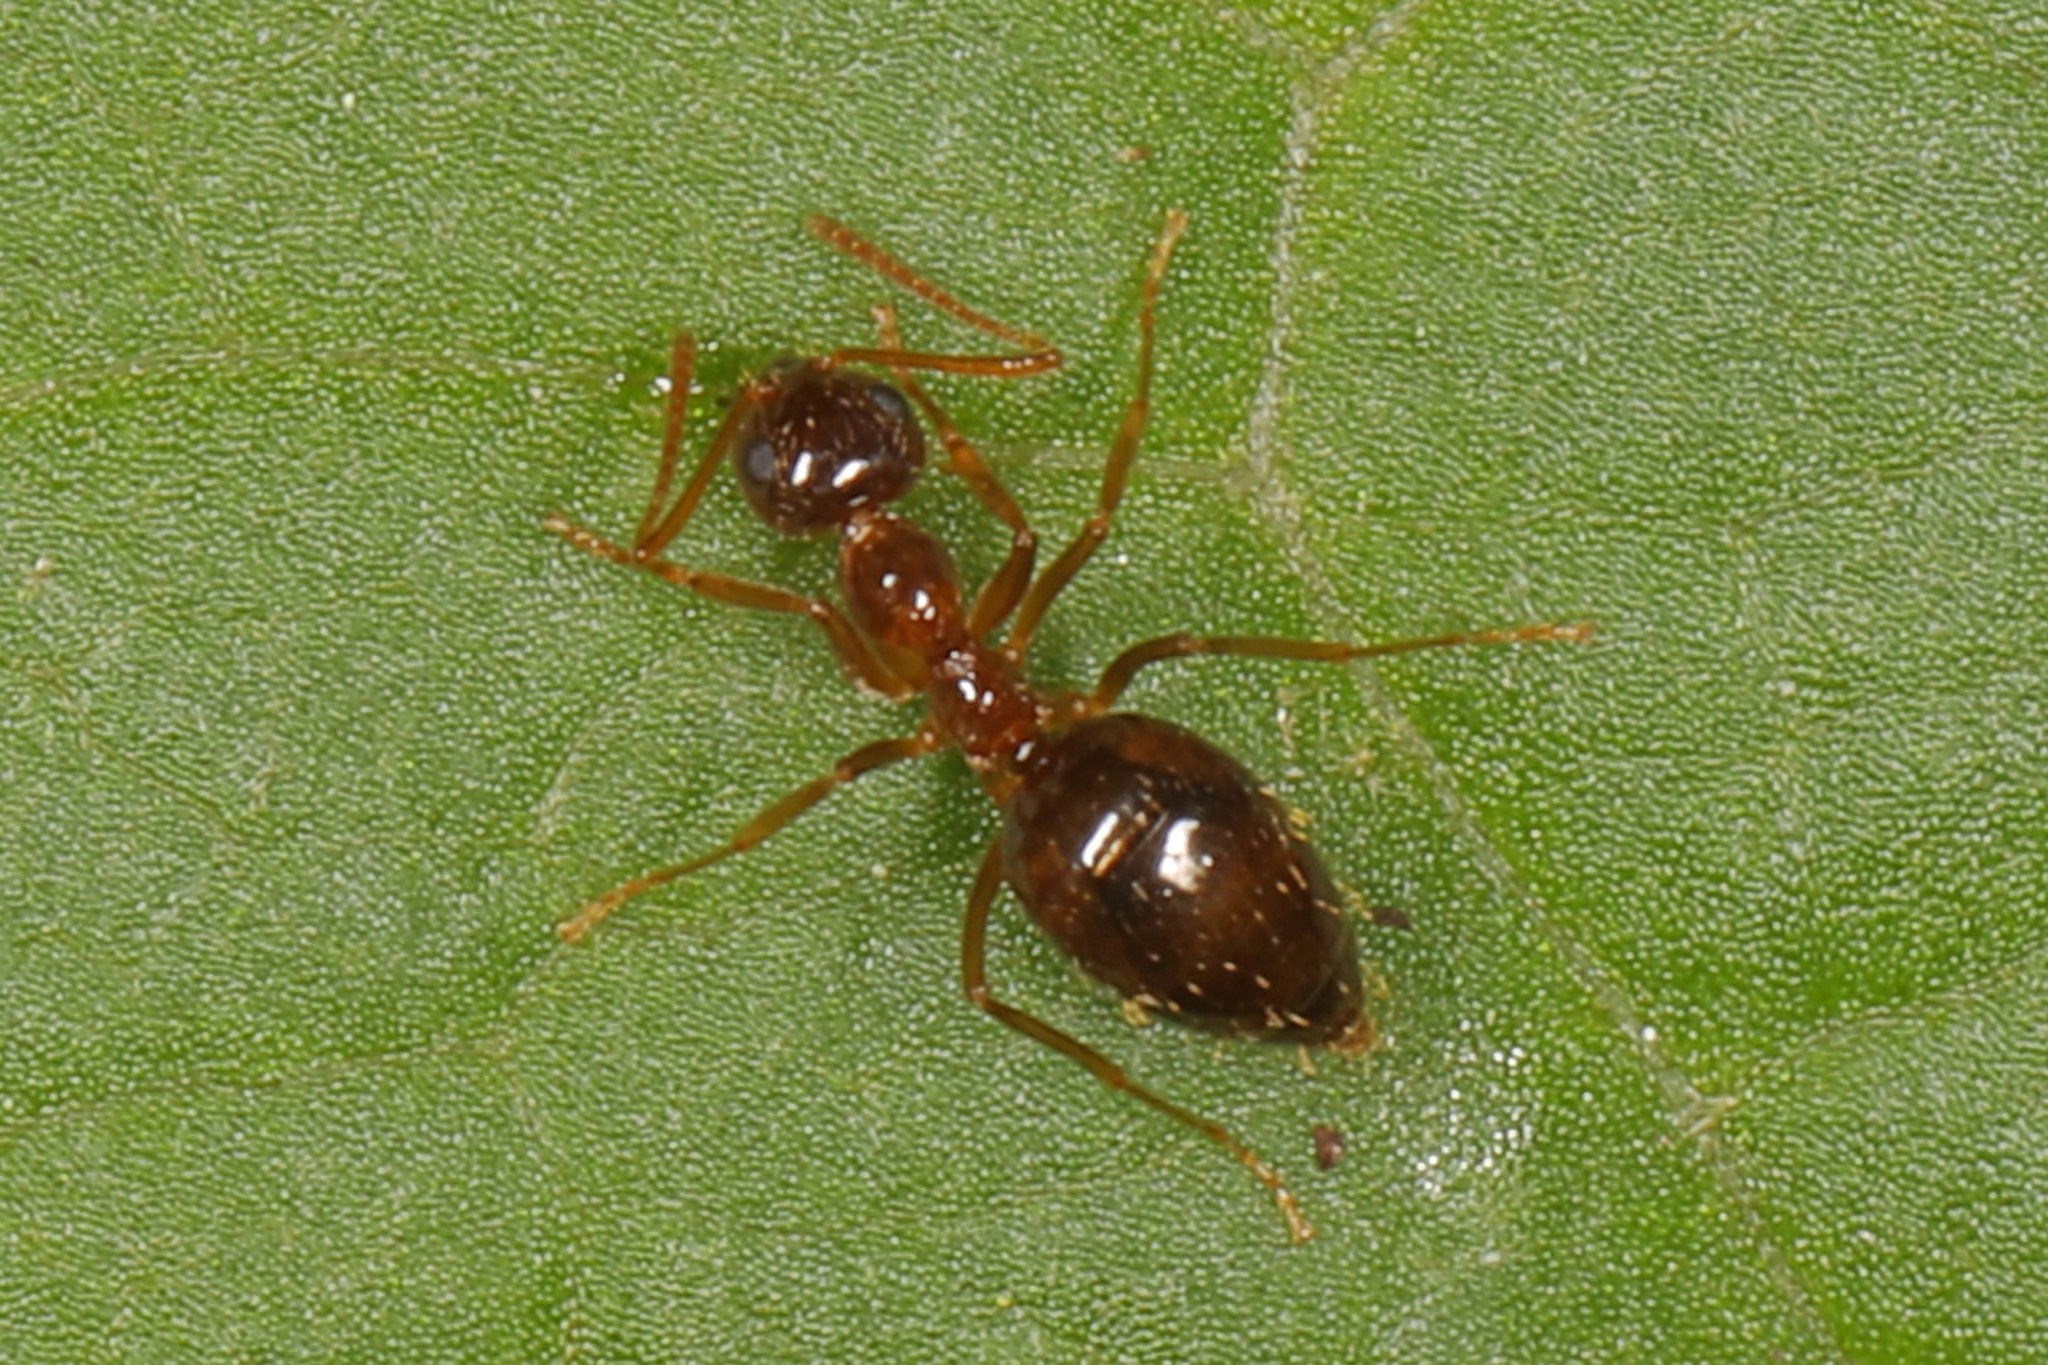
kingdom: Animalia
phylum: Arthropoda
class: Insecta
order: Hymenoptera
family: Formicidae
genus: Prenolepis
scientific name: Prenolepis imparis
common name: Small honey ant
